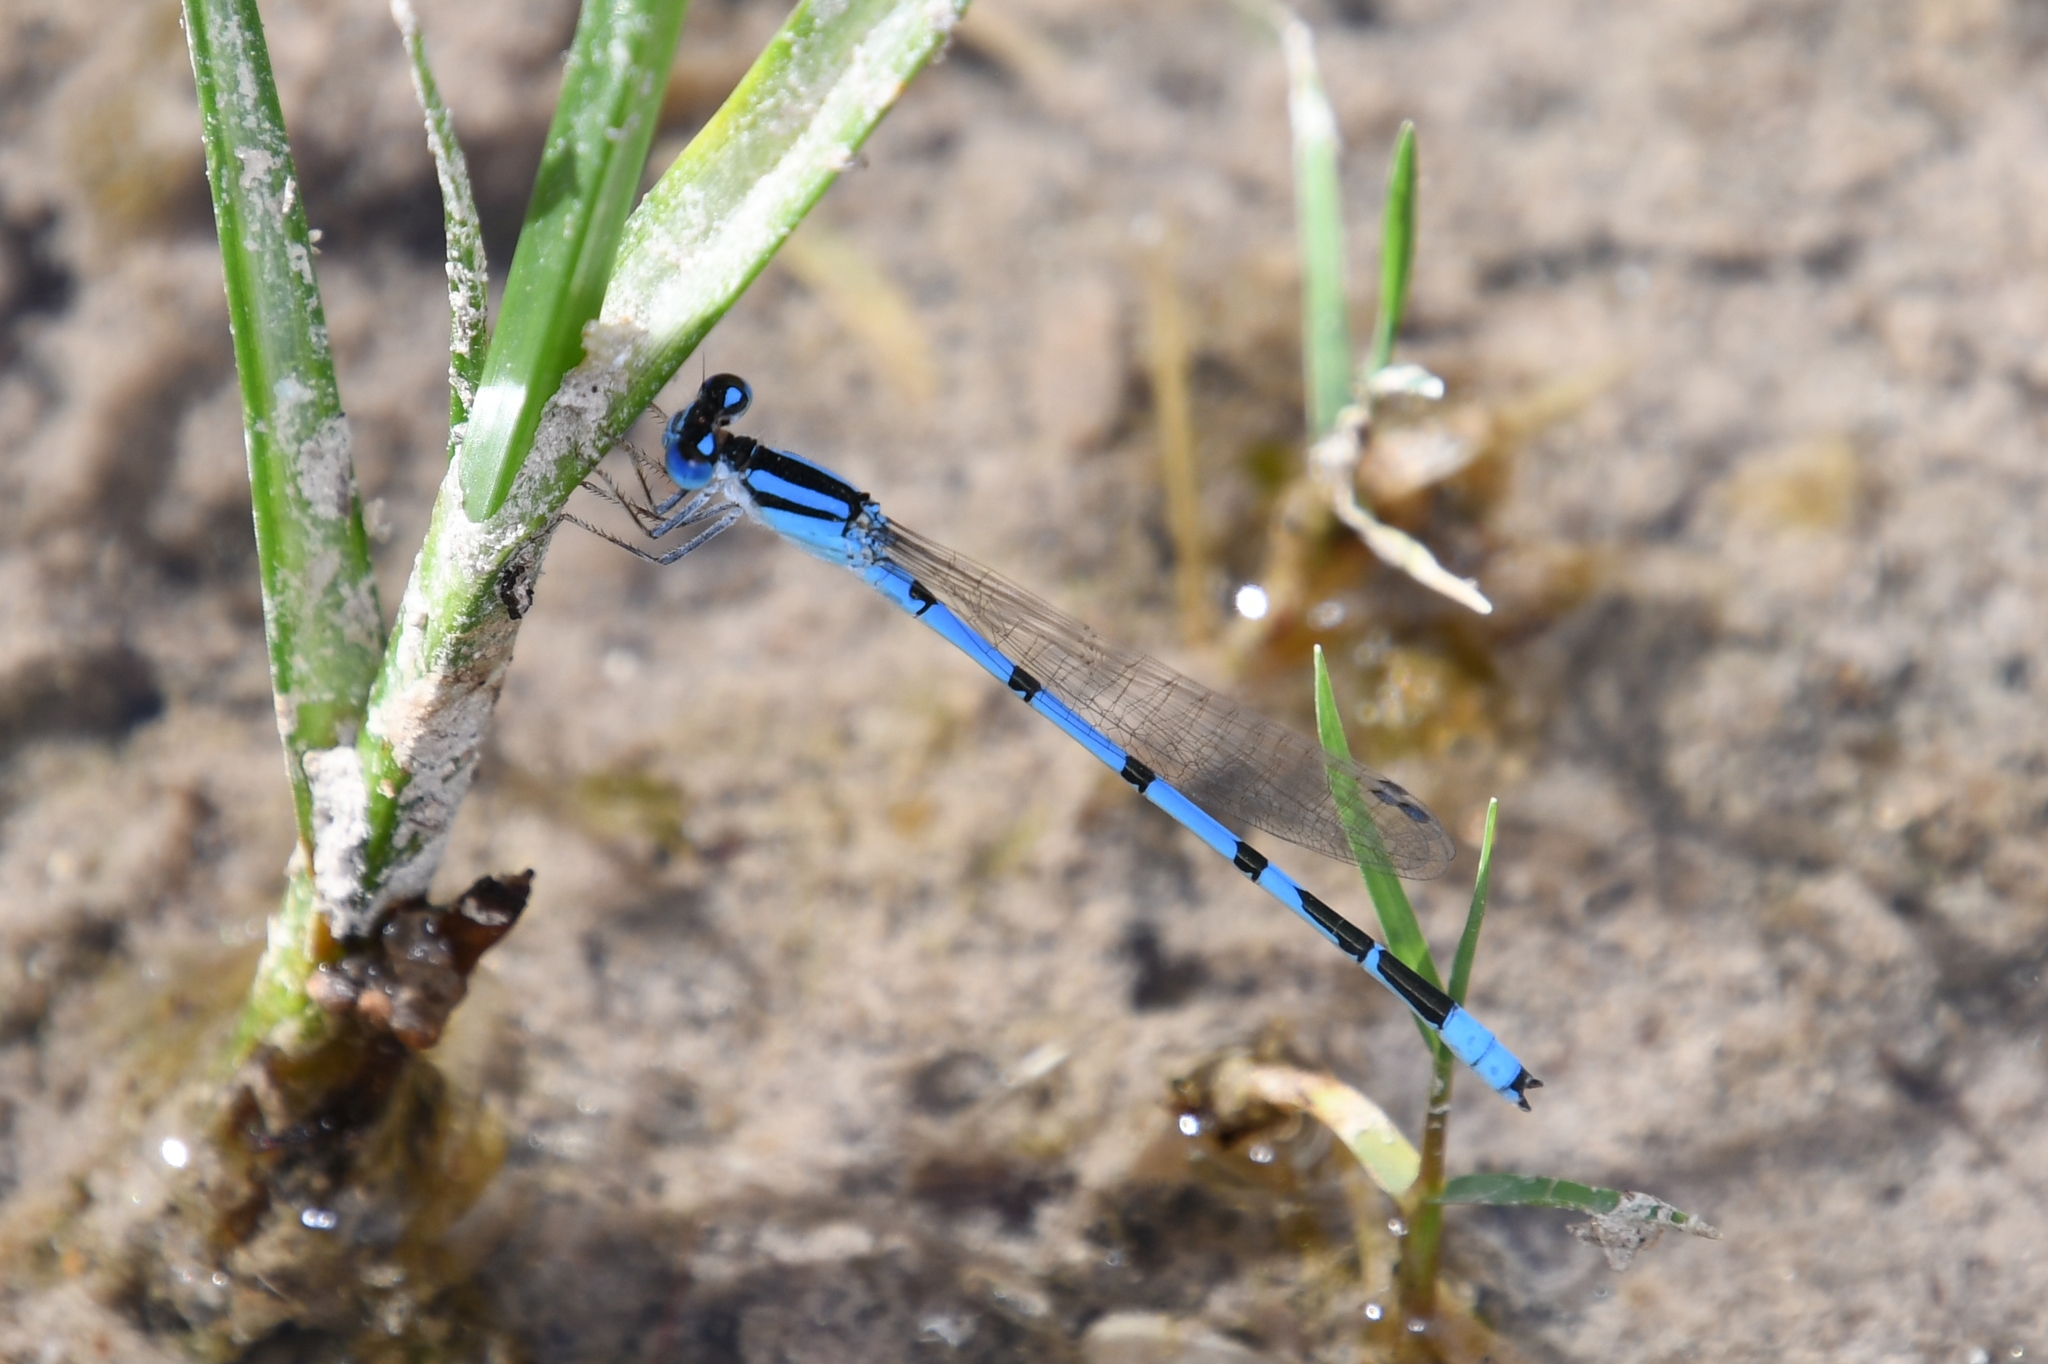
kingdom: Animalia
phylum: Arthropoda
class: Insecta
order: Odonata
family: Coenagrionidae
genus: Enallagma
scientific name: Enallagma civile
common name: Damselfly
